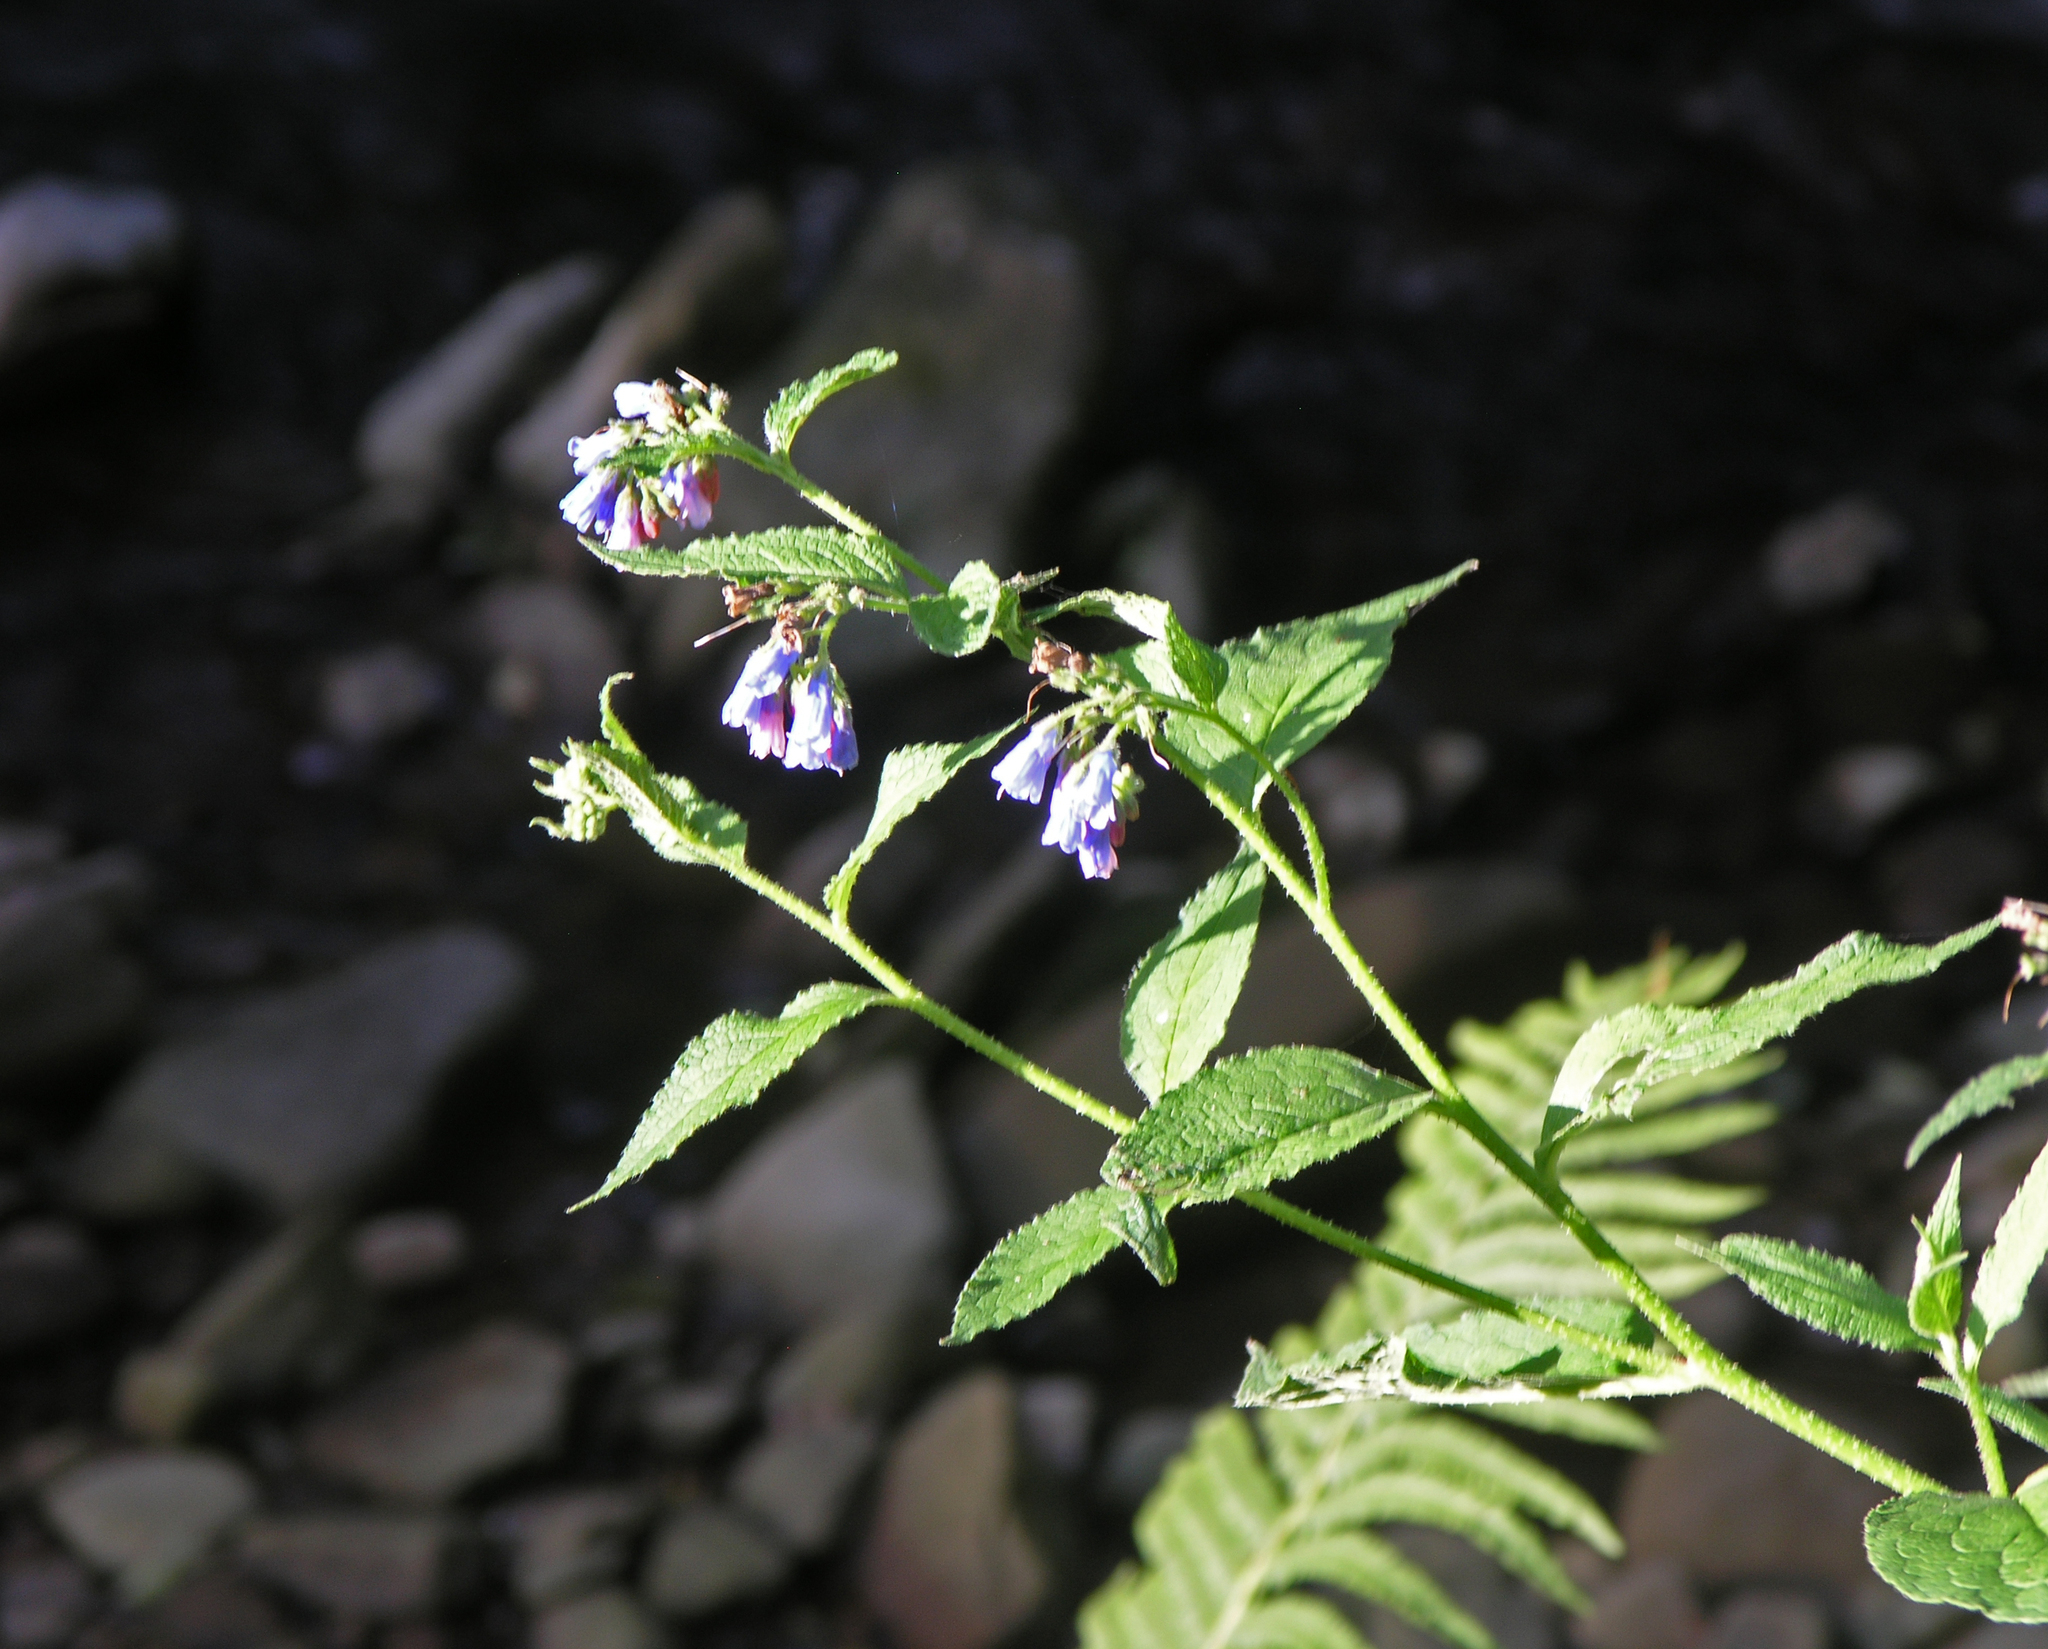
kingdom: Plantae
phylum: Tracheophyta
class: Magnoliopsida
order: Boraginales
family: Boraginaceae
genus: Symphytum
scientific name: Symphytum asperum
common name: Prickly comfrey
